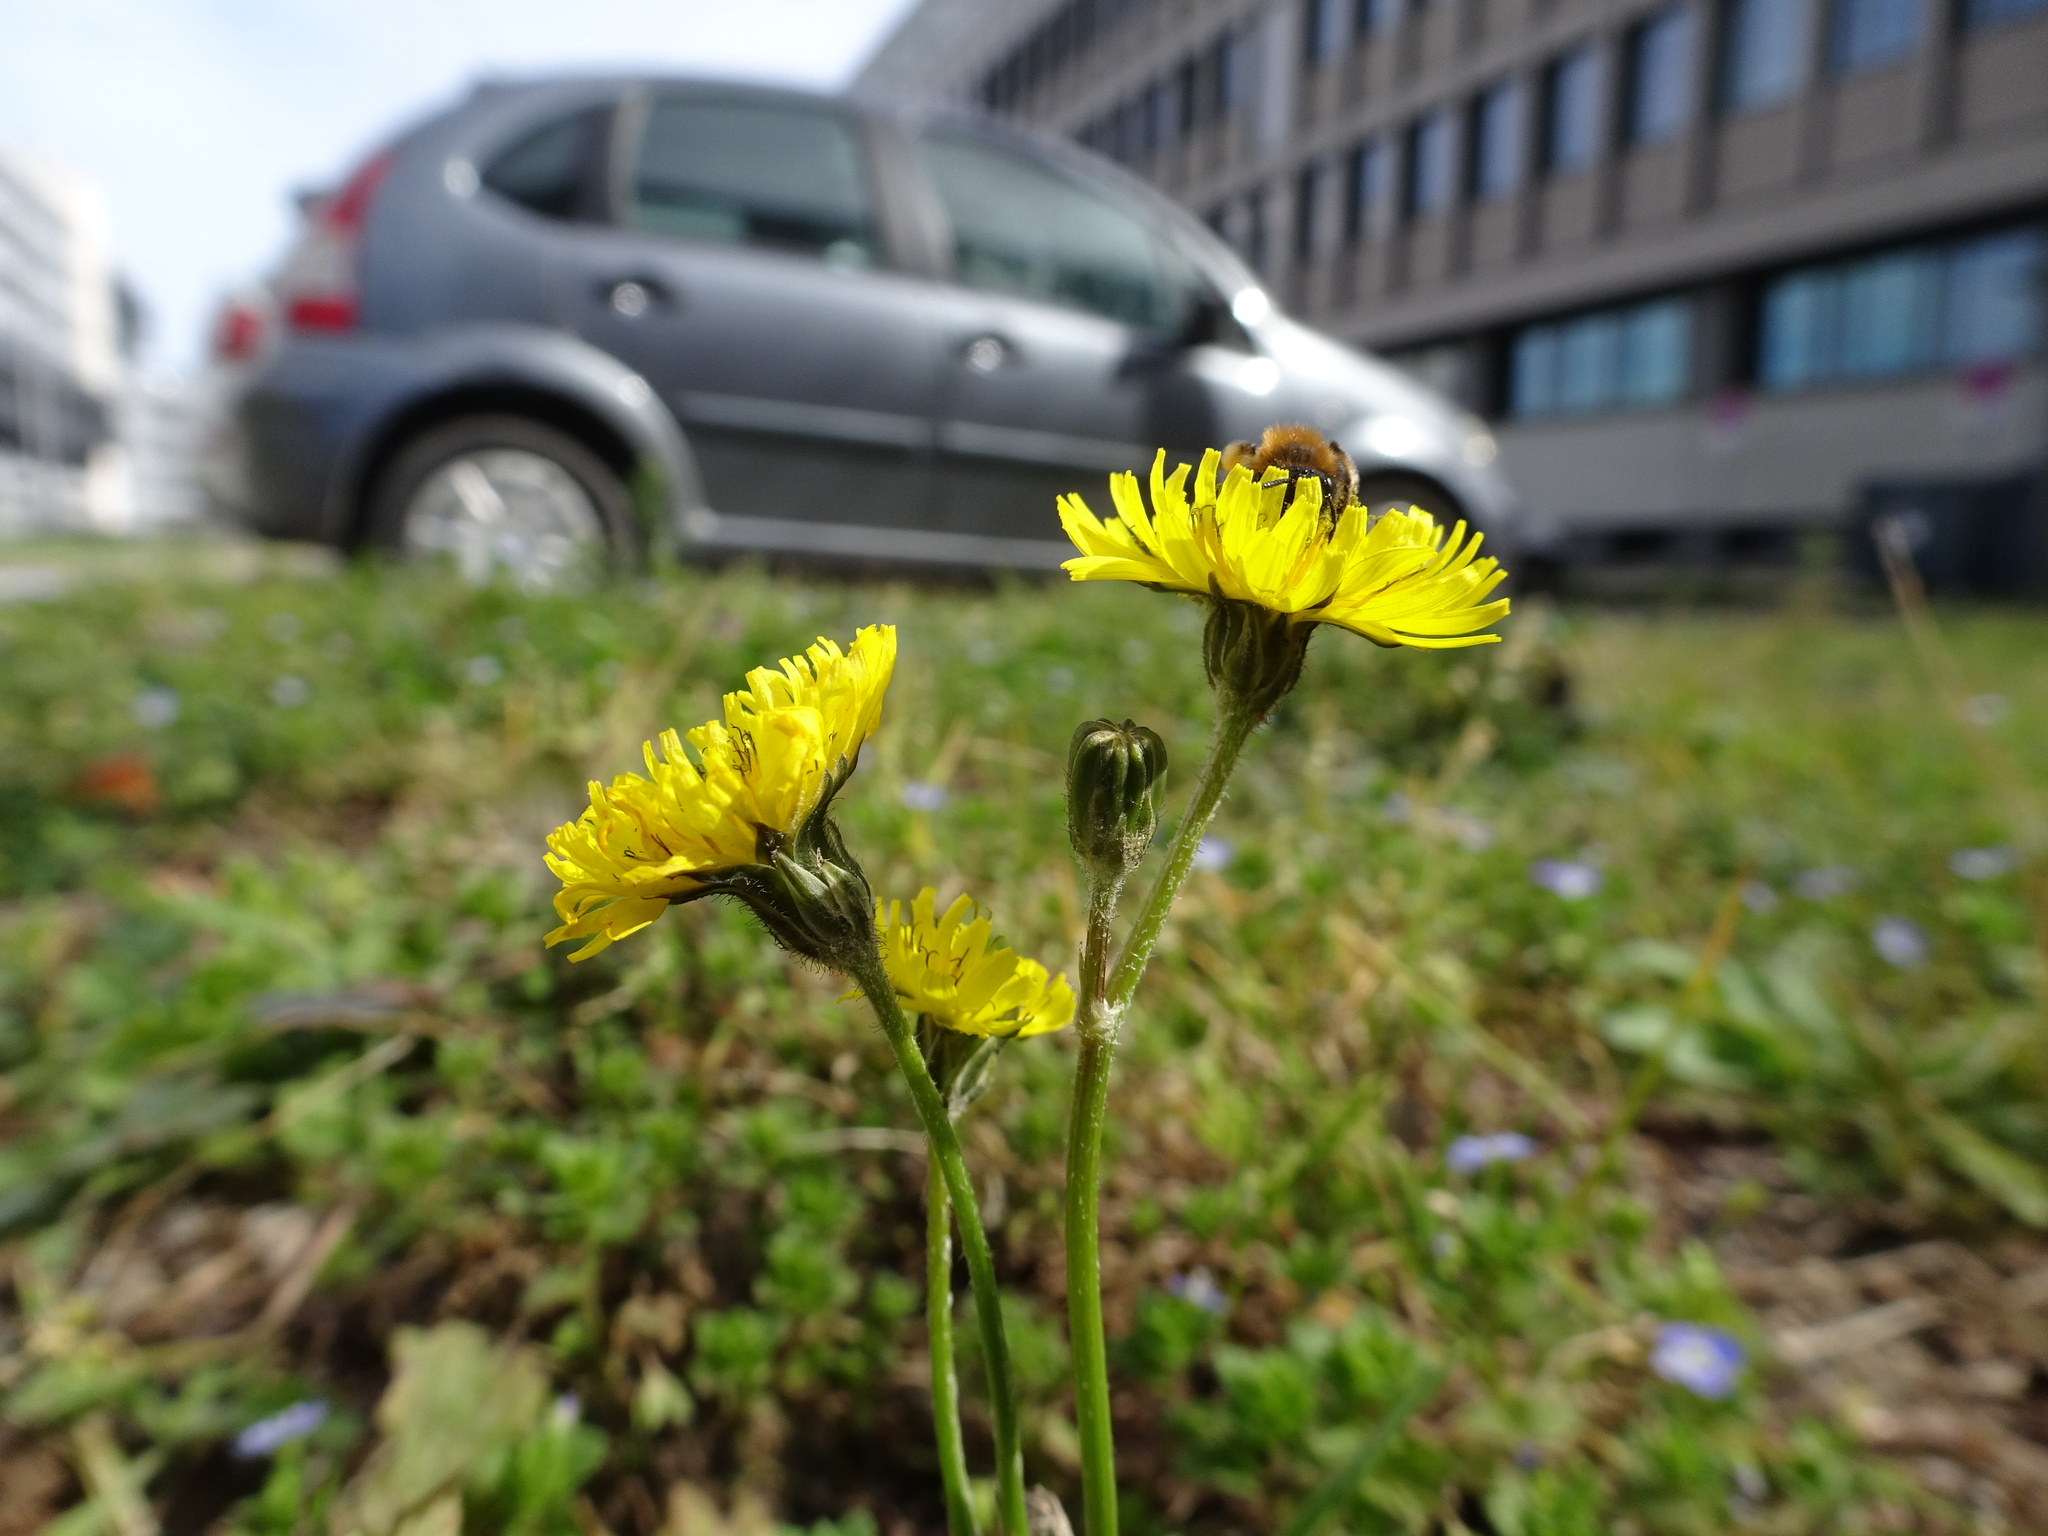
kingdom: Plantae
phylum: Tracheophyta
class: Magnoliopsida
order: Asterales
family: Asteraceae
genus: Crepis
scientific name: Crepis sancta
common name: Hawk's-beard
